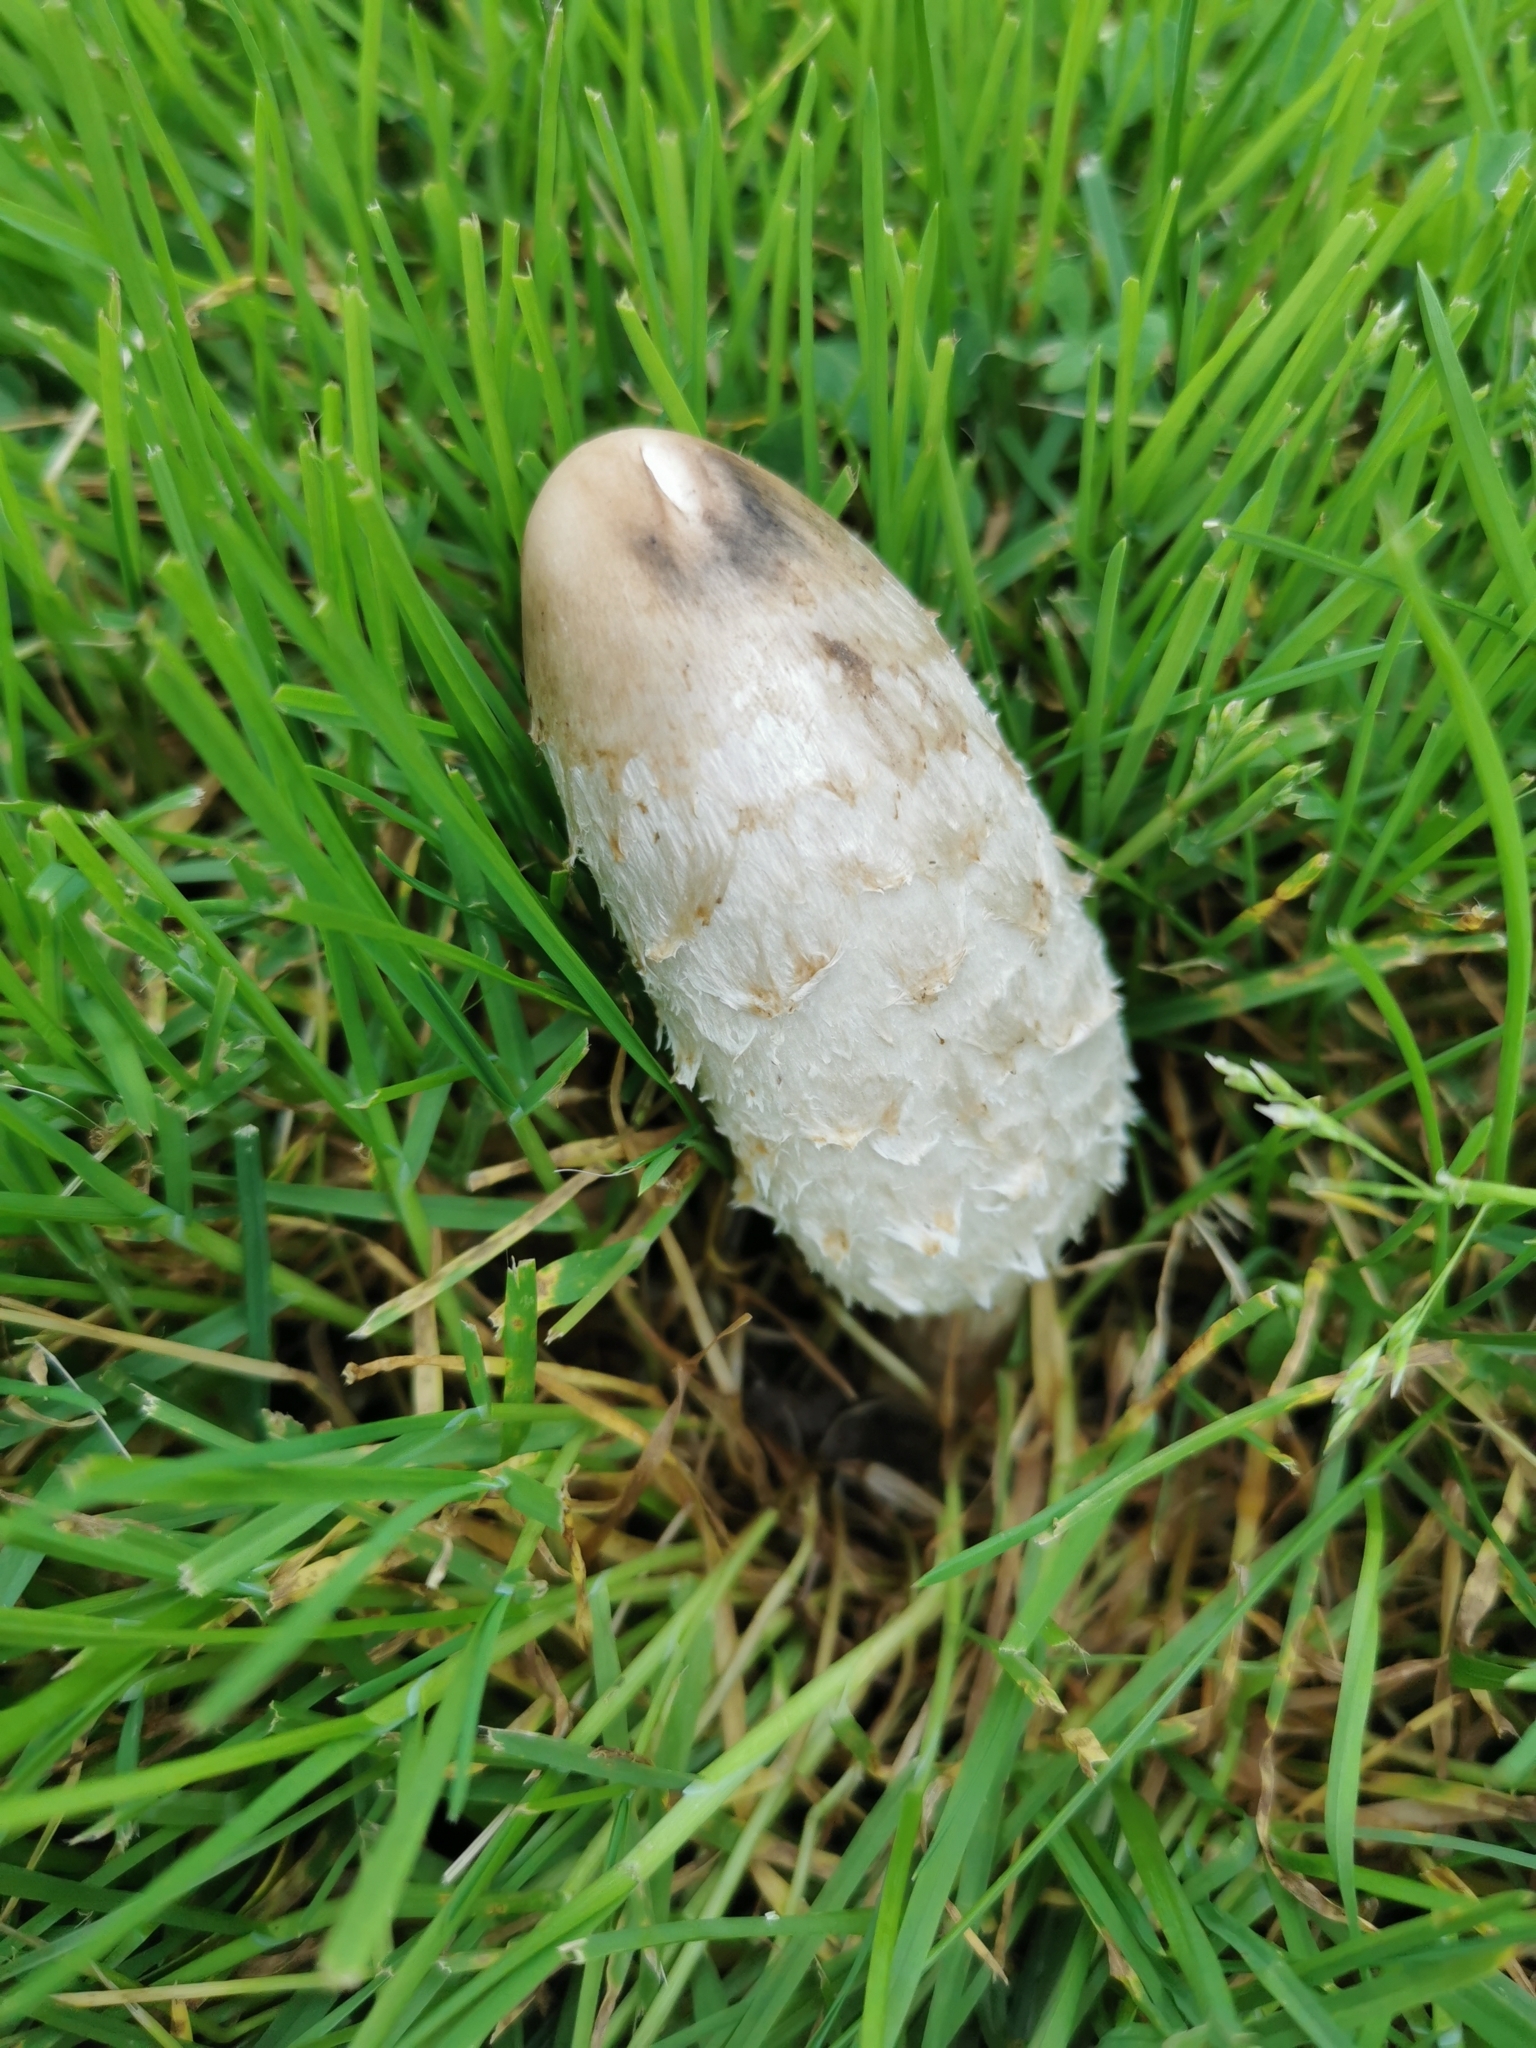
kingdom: Fungi
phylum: Basidiomycota
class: Agaricomycetes
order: Agaricales
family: Agaricaceae
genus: Coprinus
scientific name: Coprinus comatus
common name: Lawyer's wig
